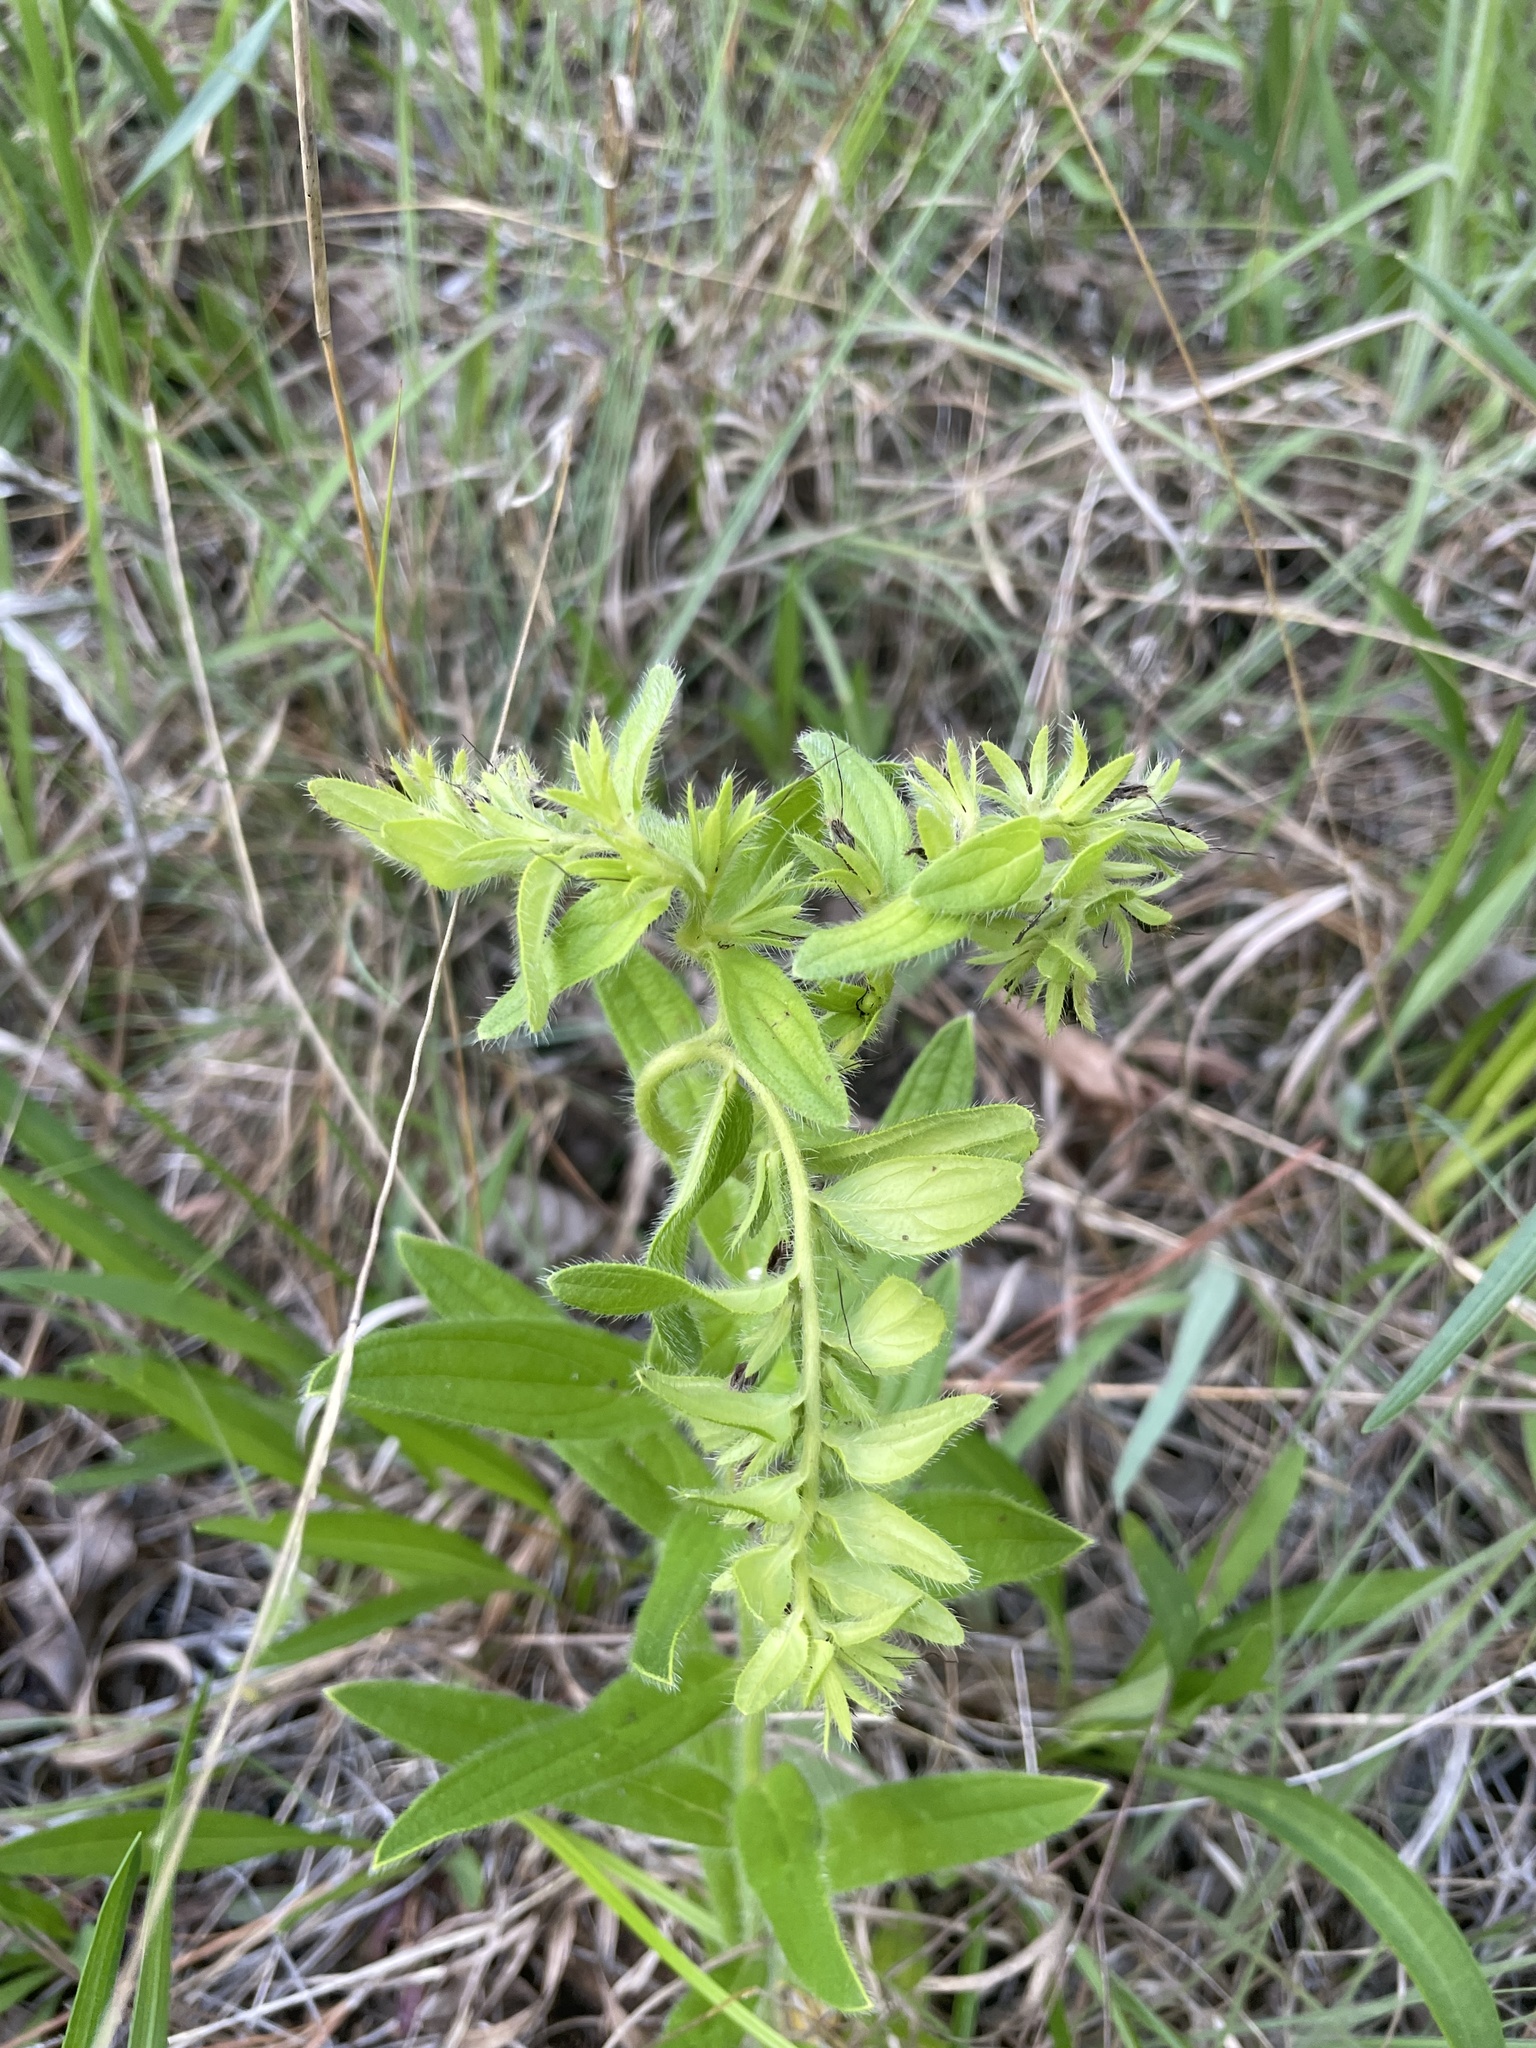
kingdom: Plantae
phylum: Tracheophyta
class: Magnoliopsida
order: Boraginales
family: Boraginaceae
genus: Lithospermum
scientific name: Lithospermum decipiens
